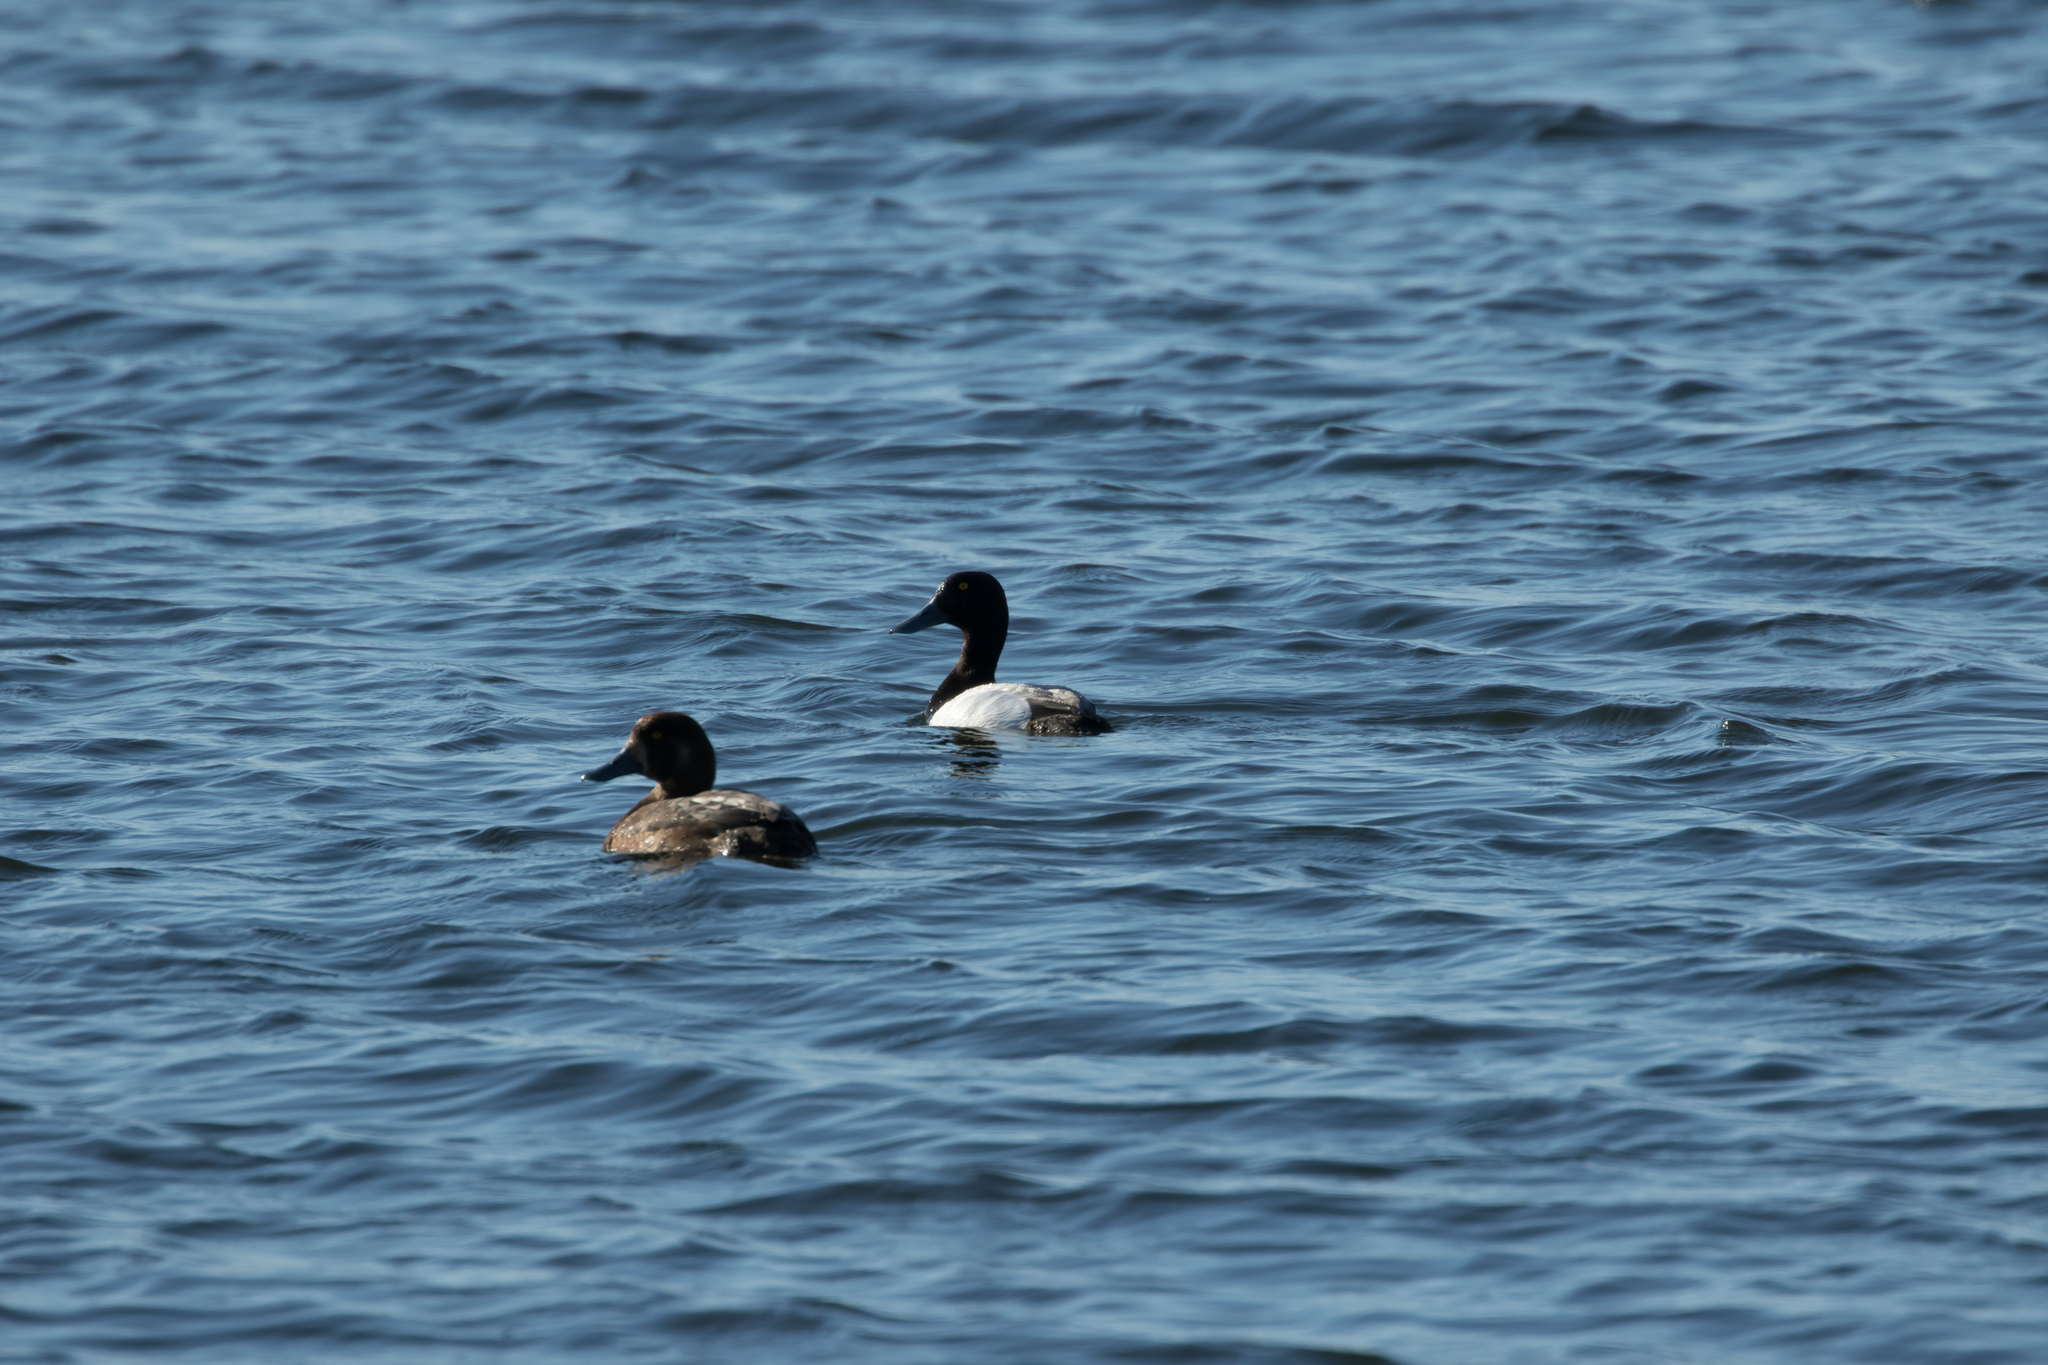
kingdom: Animalia
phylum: Chordata
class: Aves
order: Anseriformes
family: Anatidae
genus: Aythya
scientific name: Aythya marila
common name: Greater scaup
